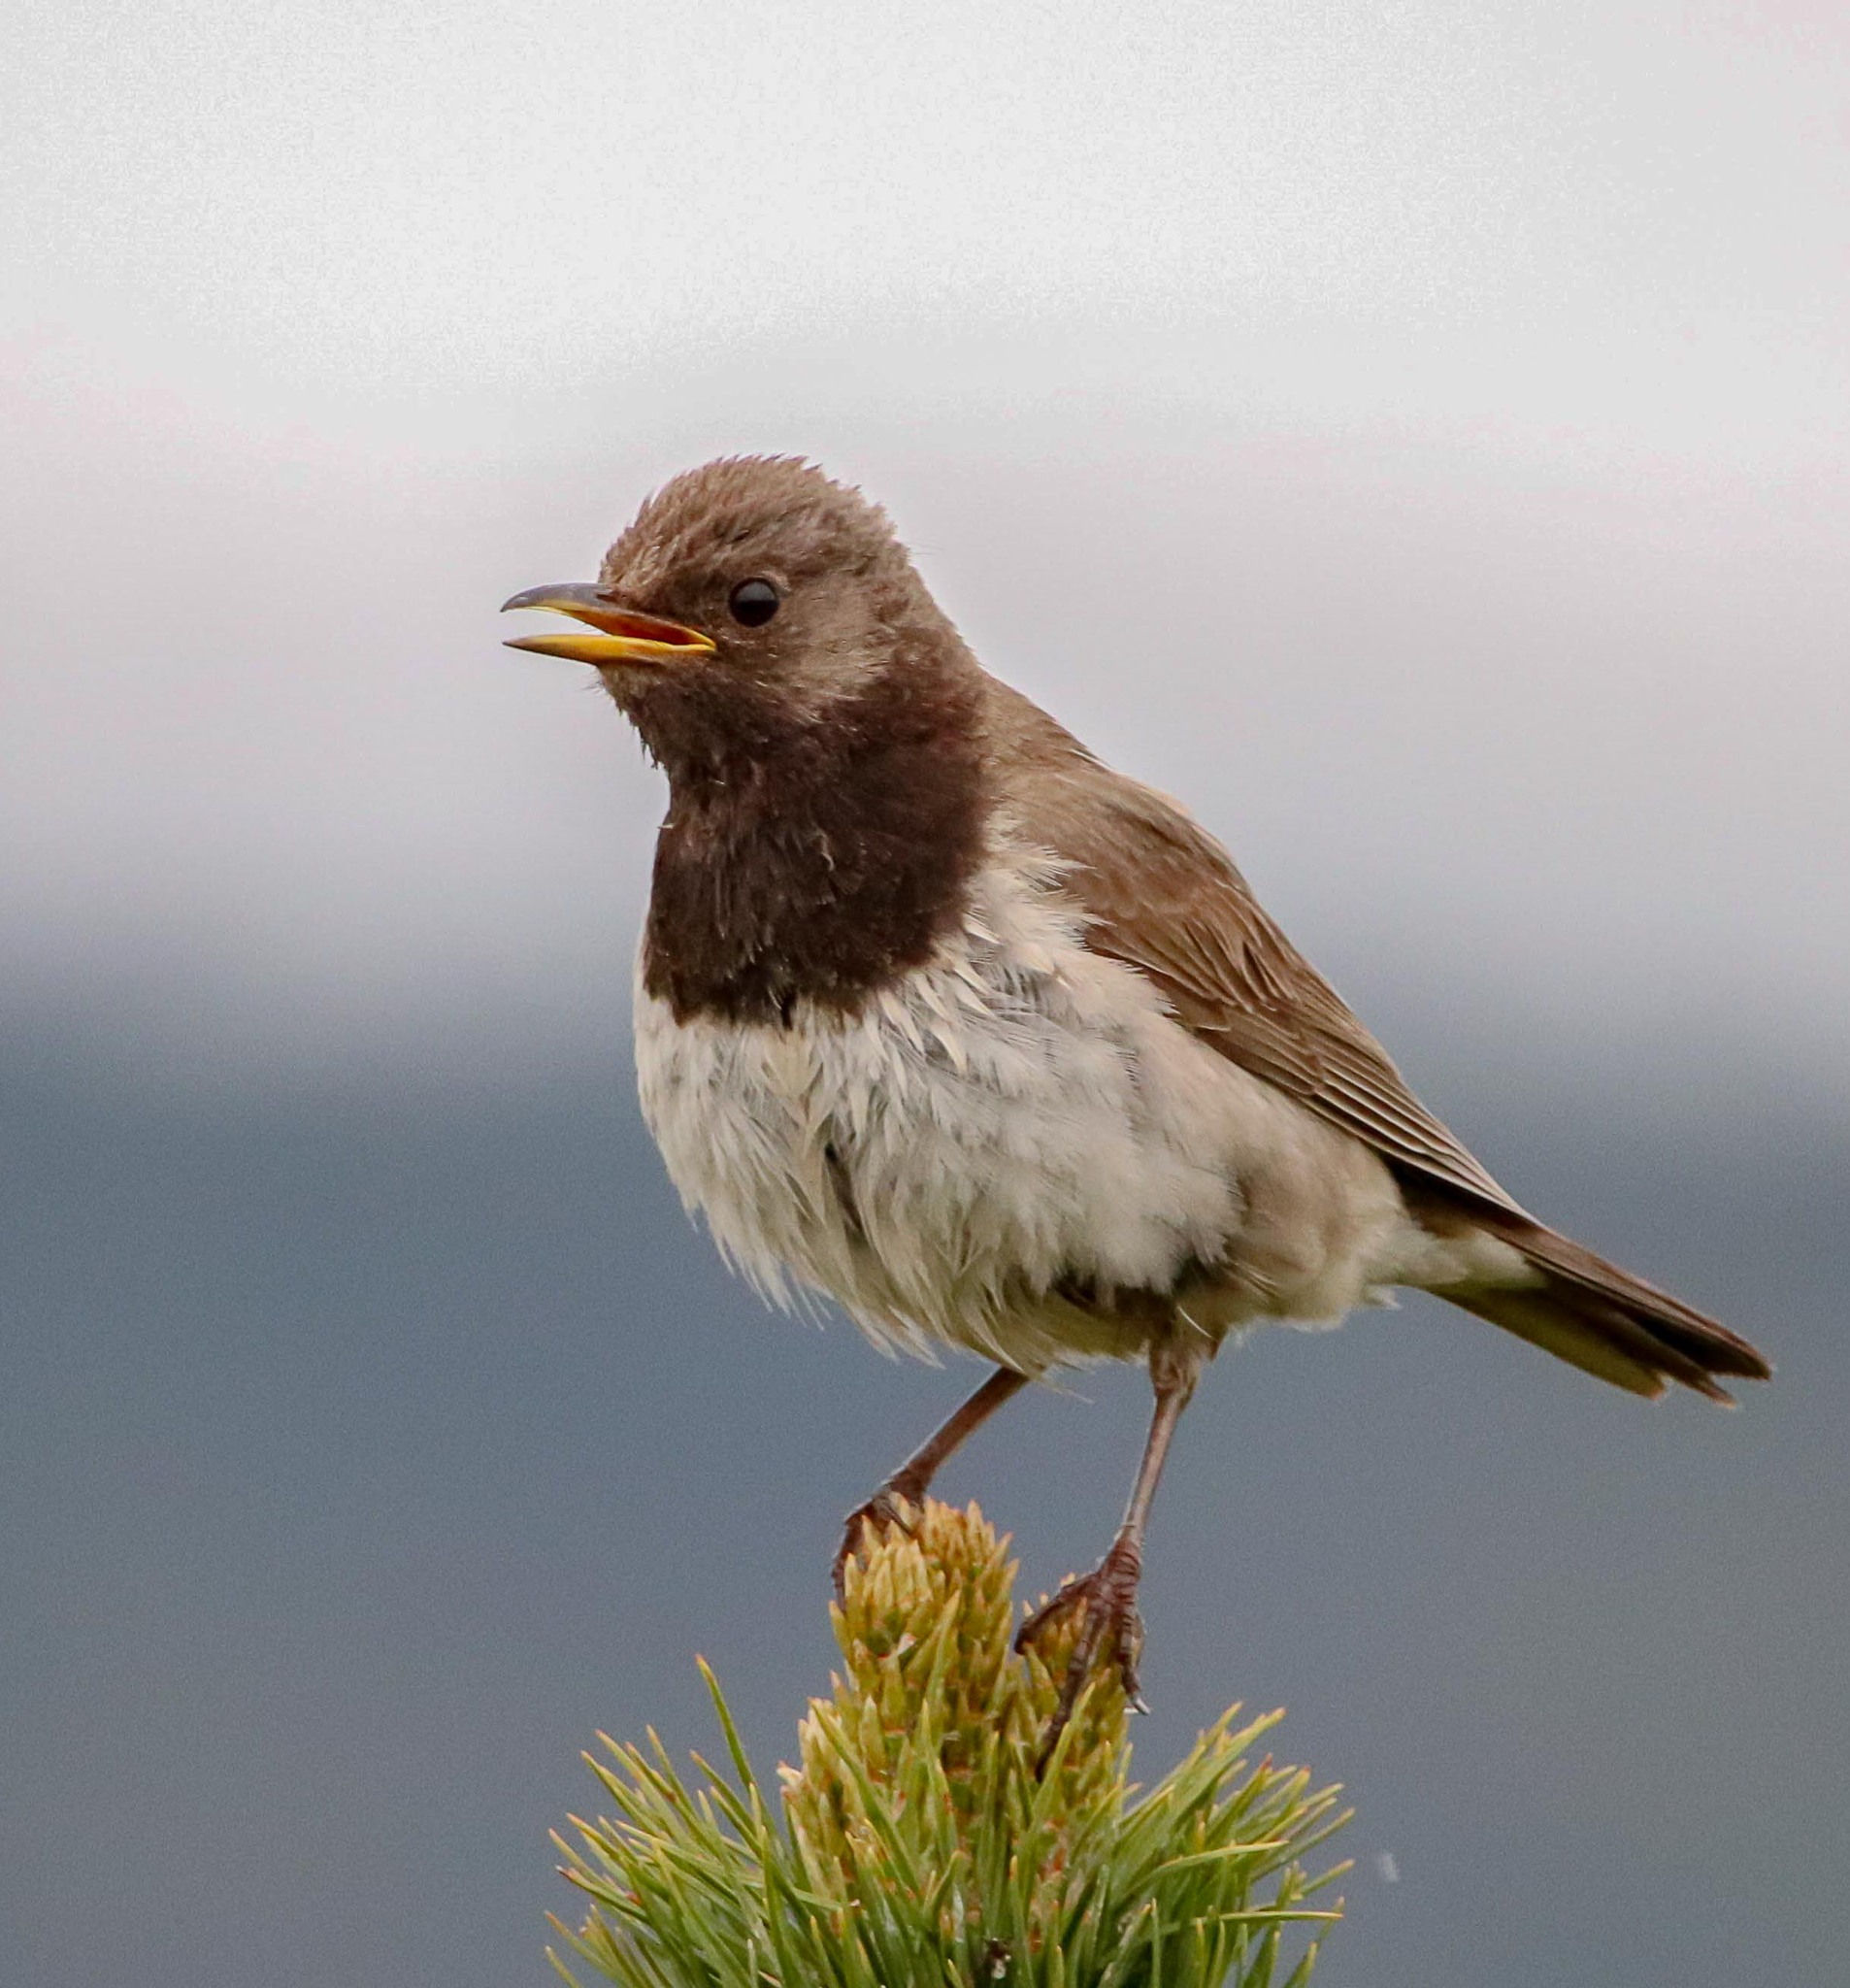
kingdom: Animalia
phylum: Chordata
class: Aves
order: Passeriformes
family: Turdidae
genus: Turdus
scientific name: Turdus atrogularis
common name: Black-throated thrush
